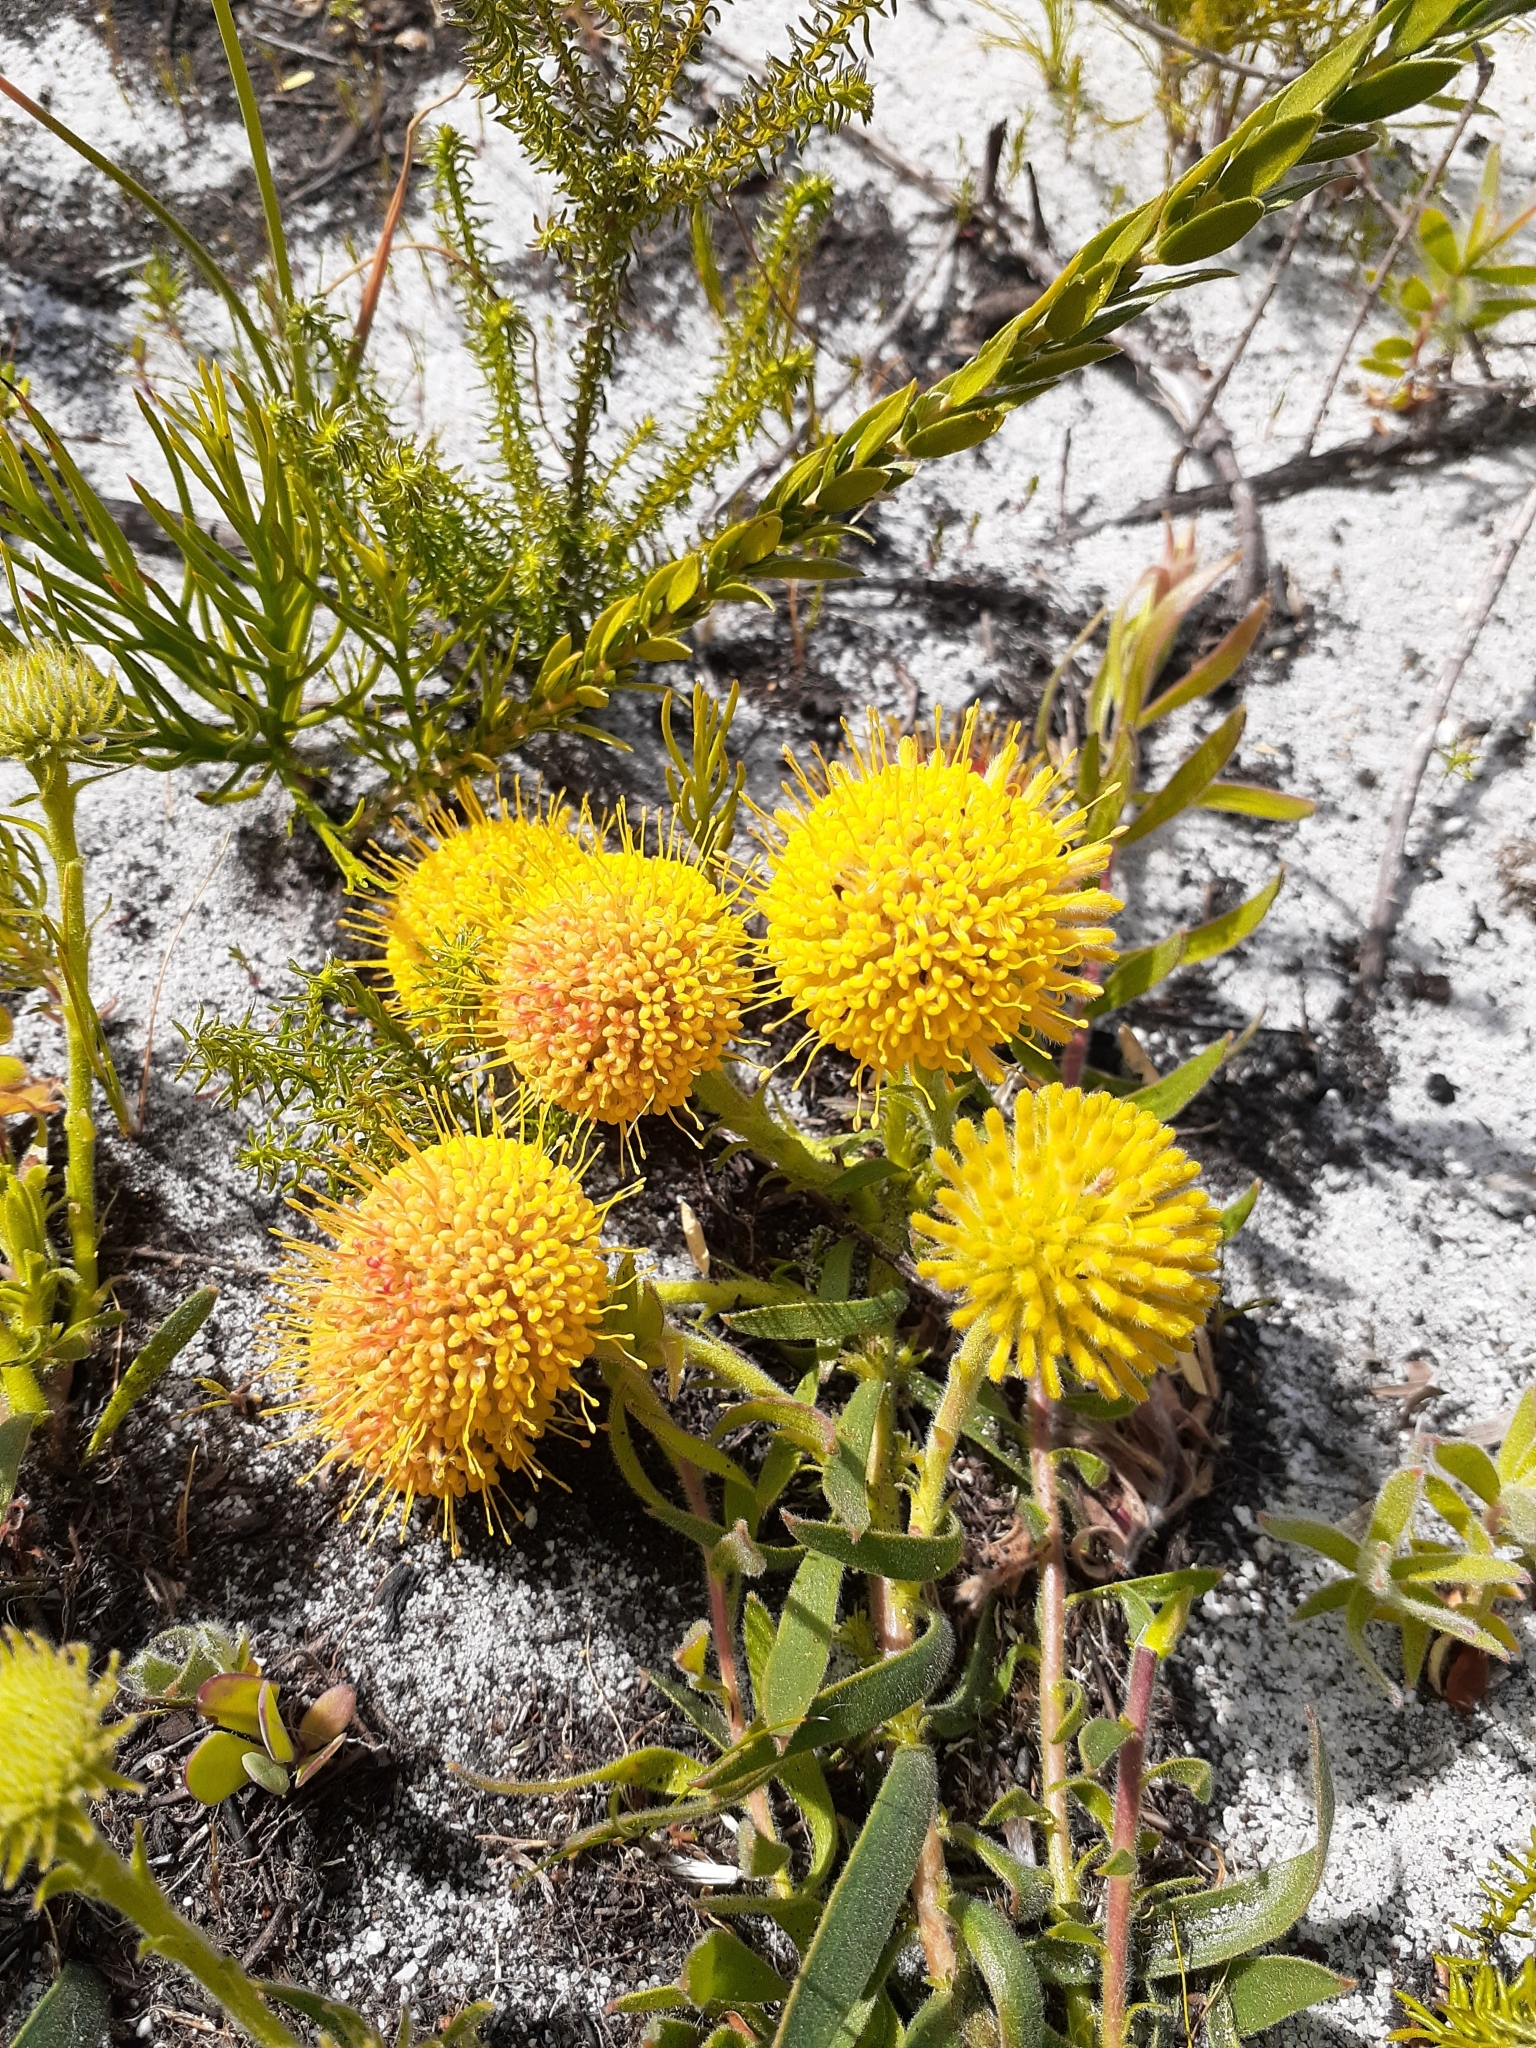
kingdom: Plantae
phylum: Tracheophyta
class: Magnoliopsida
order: Proteales
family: Proteaceae
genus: Leucospermum
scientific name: Leucospermum prostratum
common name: Yellow-trailing pincushion
